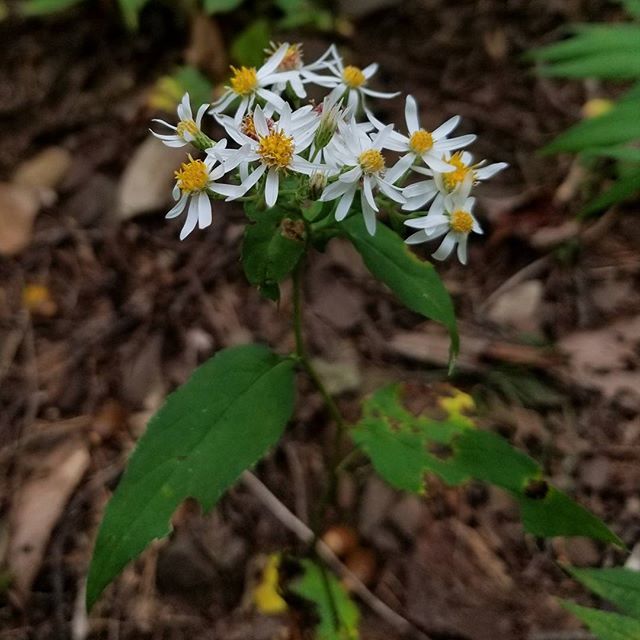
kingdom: Plantae
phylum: Tracheophyta
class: Magnoliopsida
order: Asterales
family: Asteraceae
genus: Eurybia
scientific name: Eurybia divaricata
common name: White wood aster
